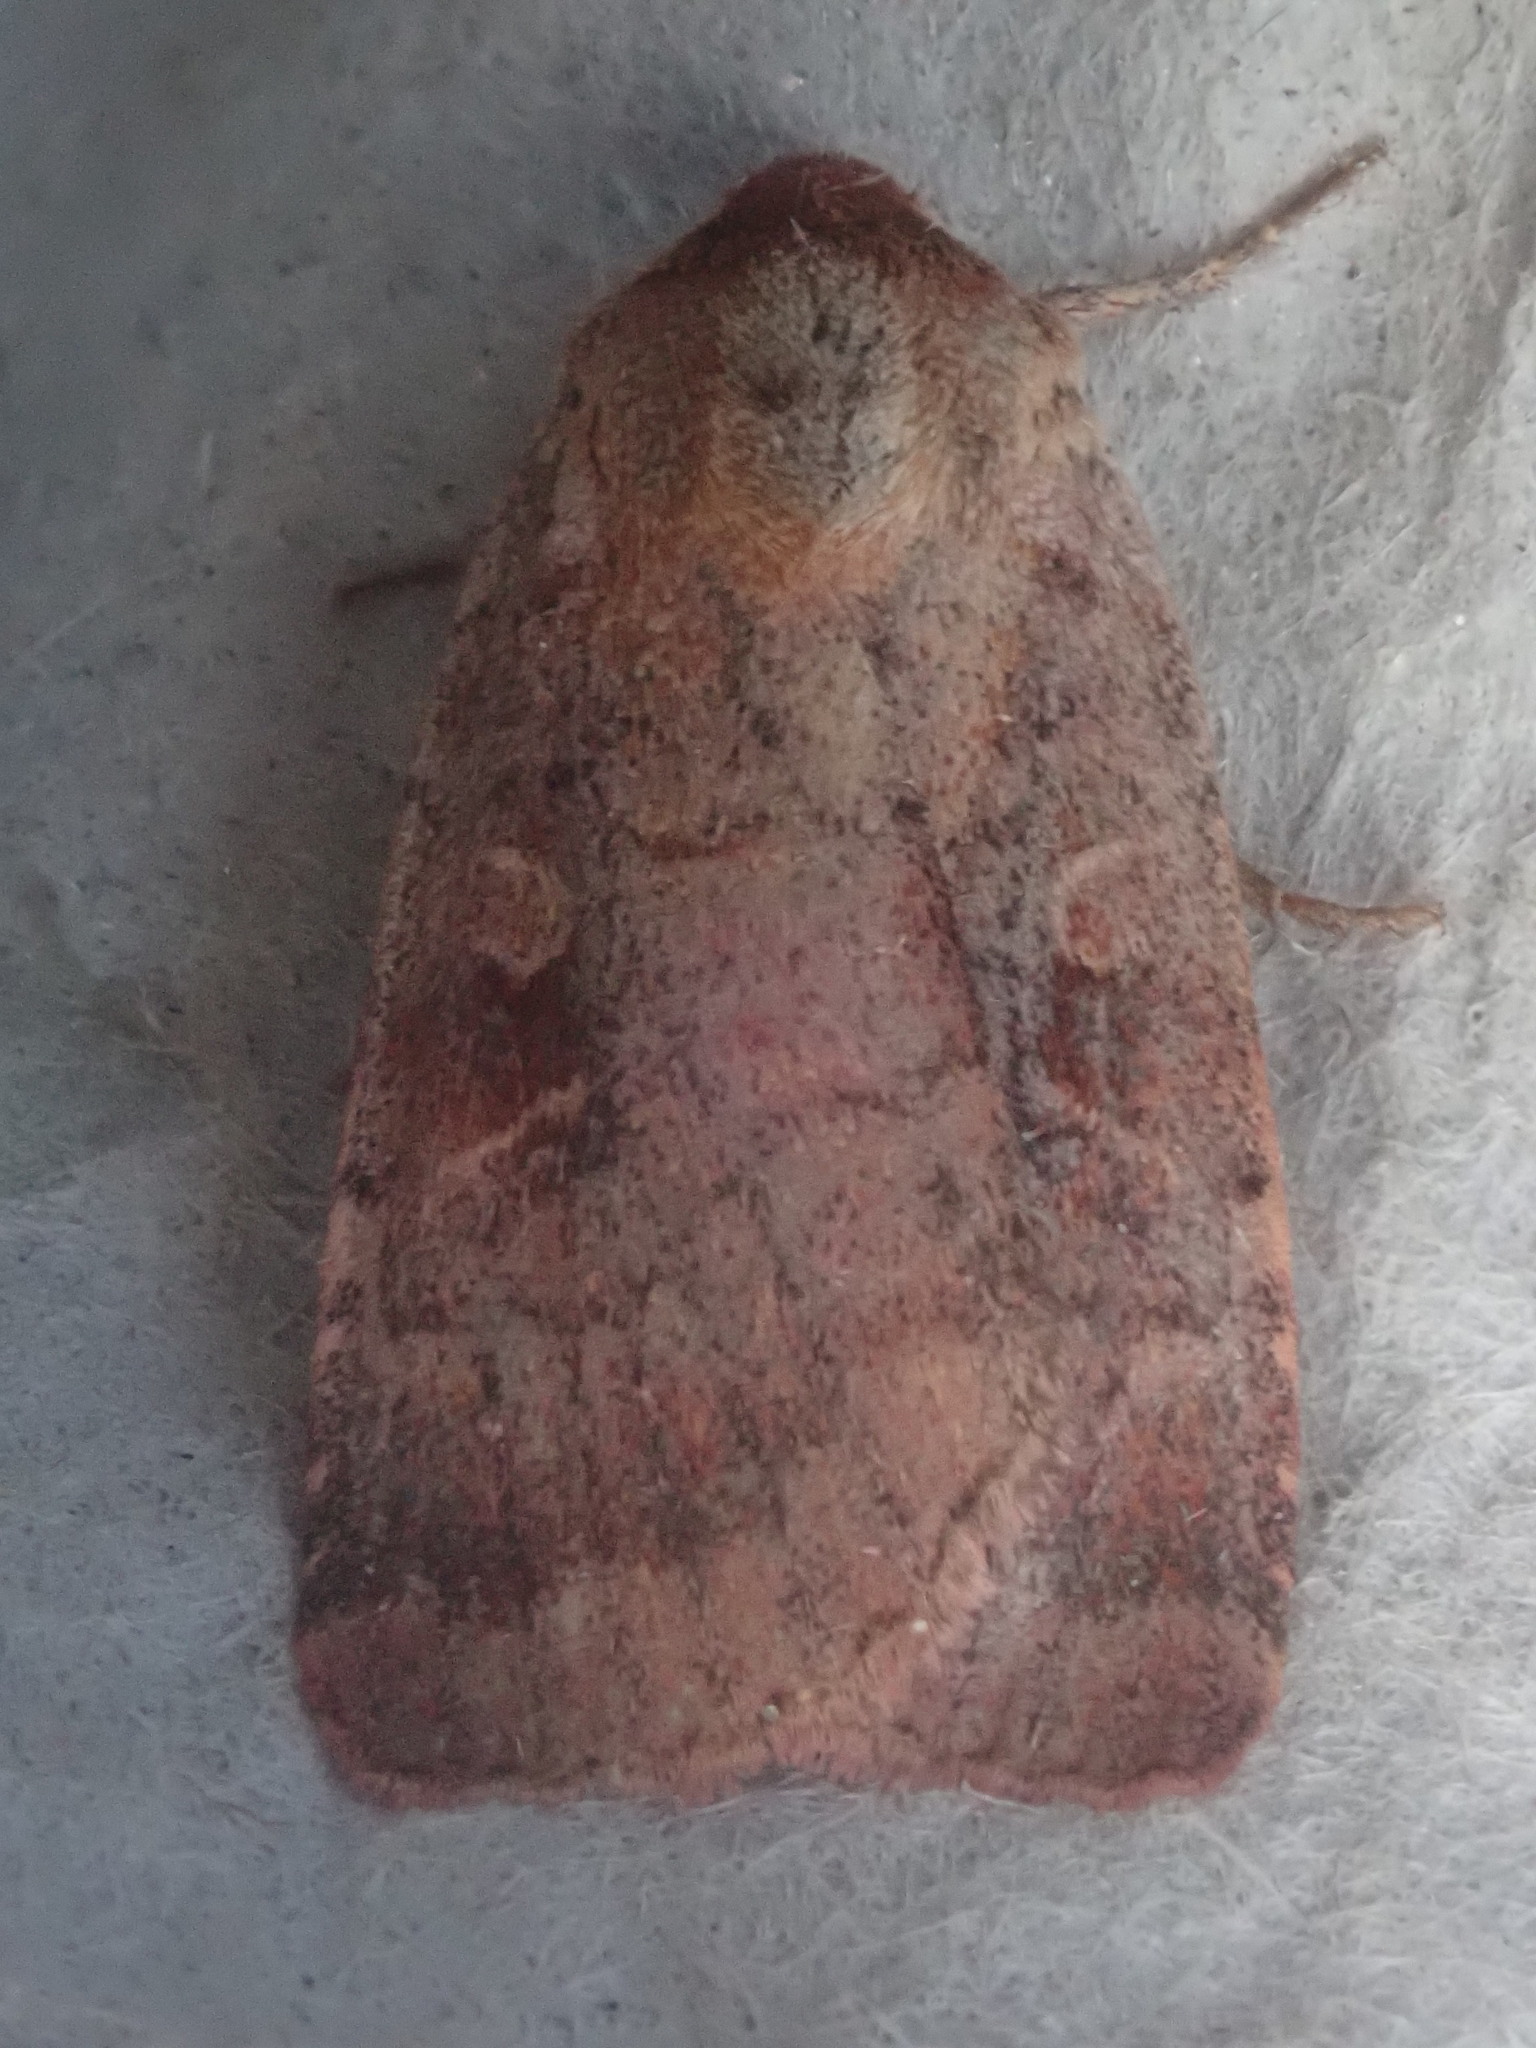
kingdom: Animalia
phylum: Arthropoda
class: Insecta
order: Lepidoptera
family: Noctuidae
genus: Lycophotia
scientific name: Lycophotia phyllophora
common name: Lycophotia moth
